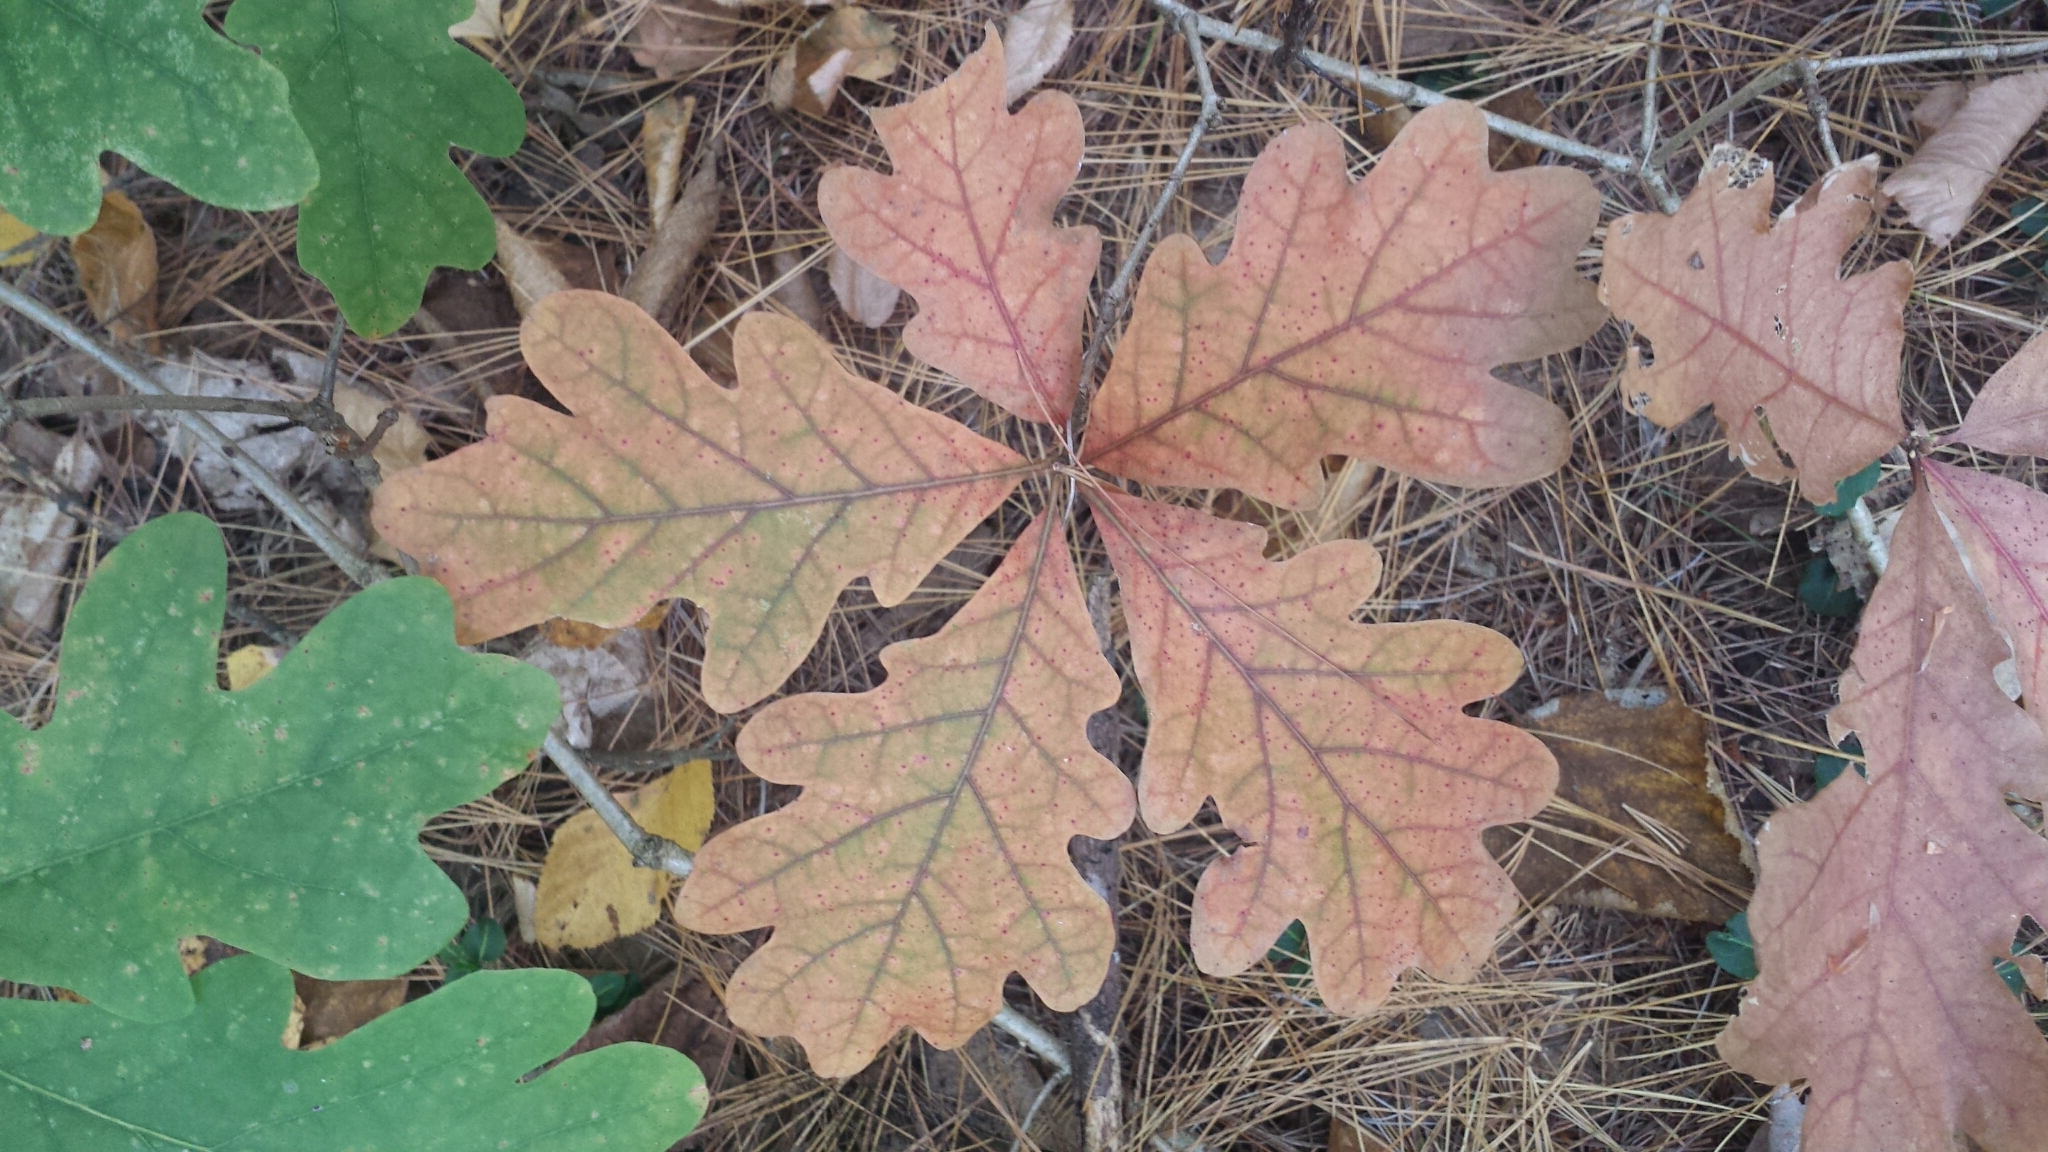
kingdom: Plantae
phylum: Tracheophyta
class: Magnoliopsida
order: Fagales
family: Fagaceae
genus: Quercus
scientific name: Quercus alba
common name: White oak
